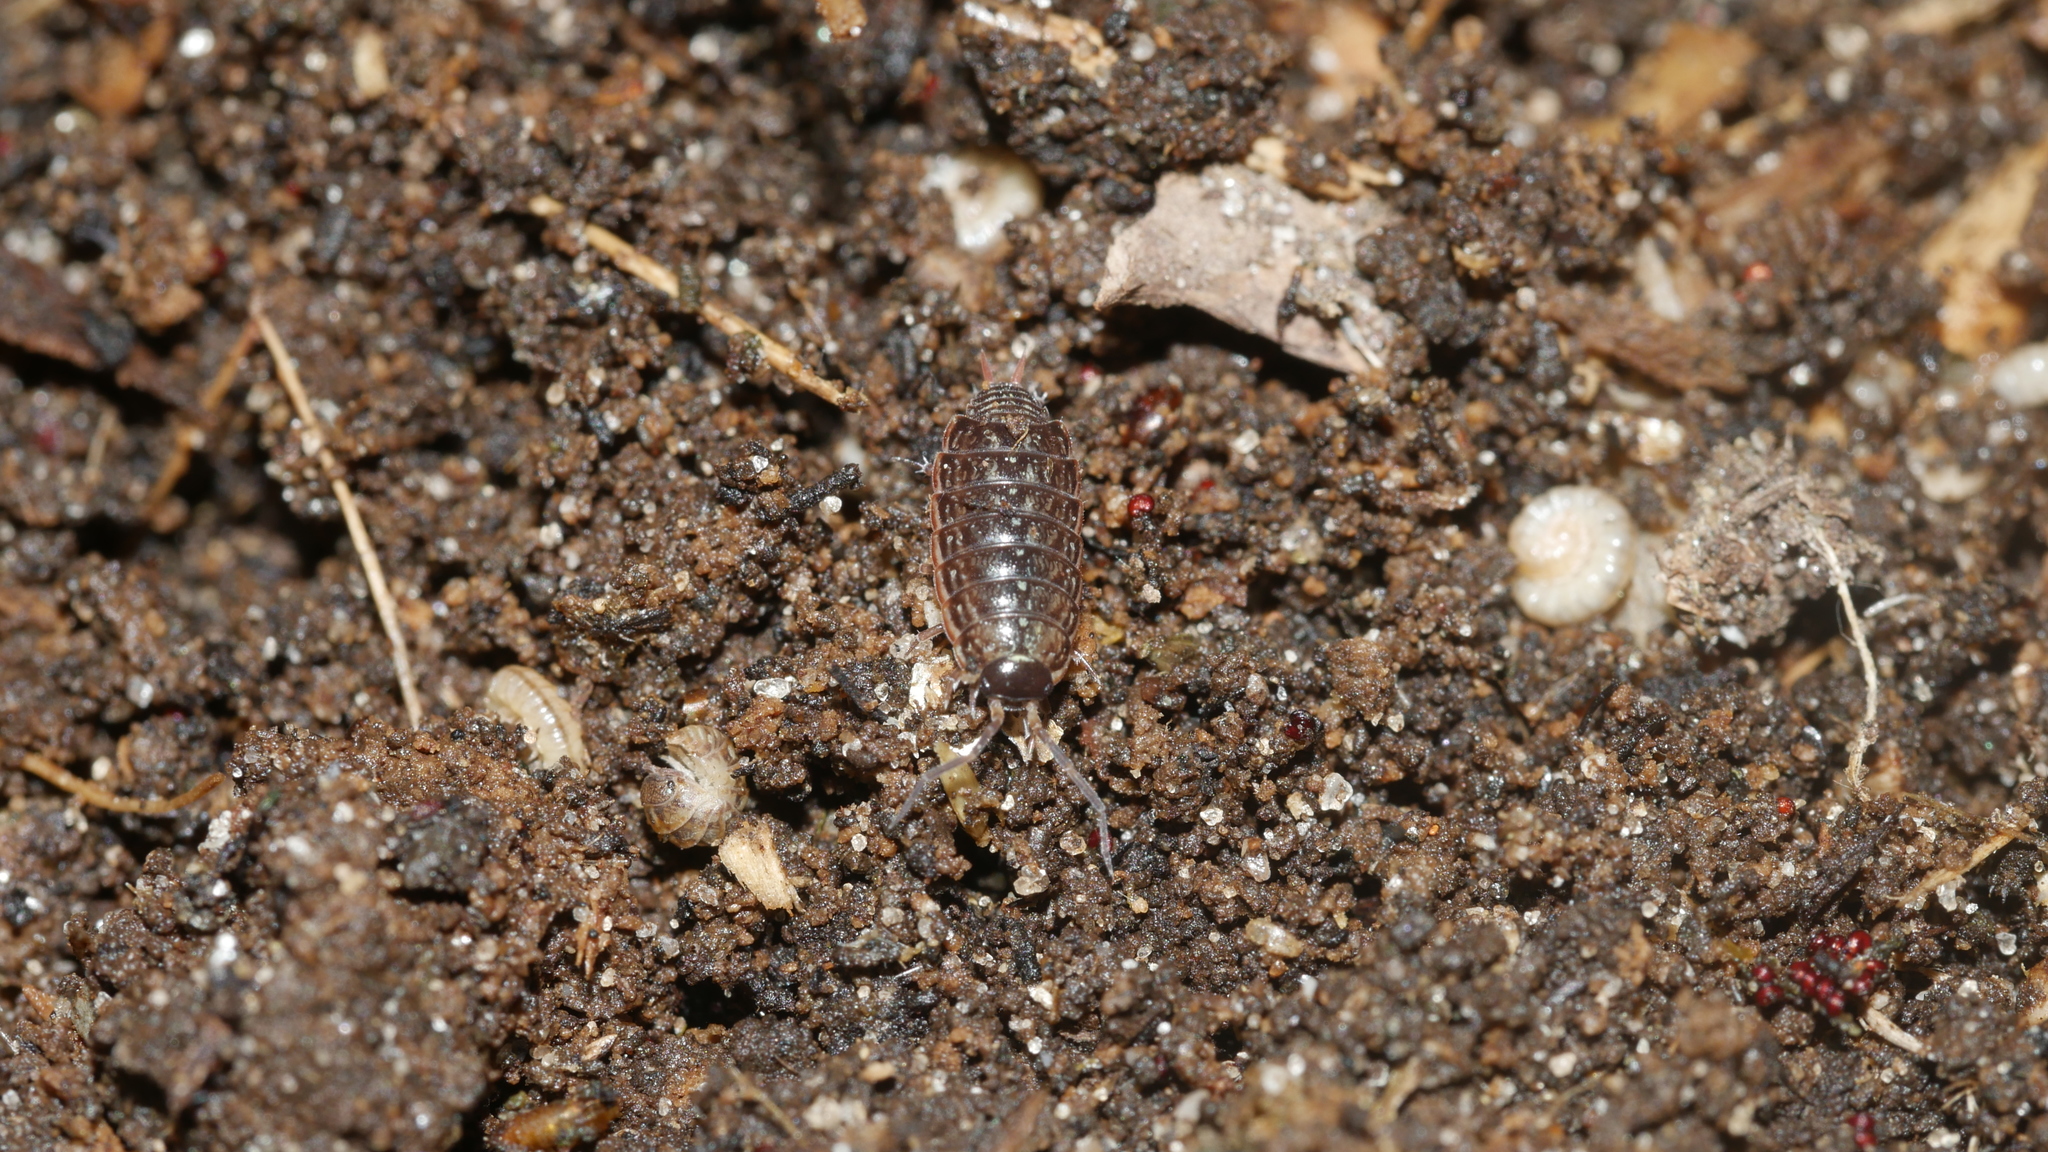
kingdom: Animalia
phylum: Arthropoda
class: Malacostraca
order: Isopoda
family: Philosciidae
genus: Philoscia
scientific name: Philoscia muscorum
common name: Common striped woodlouse
